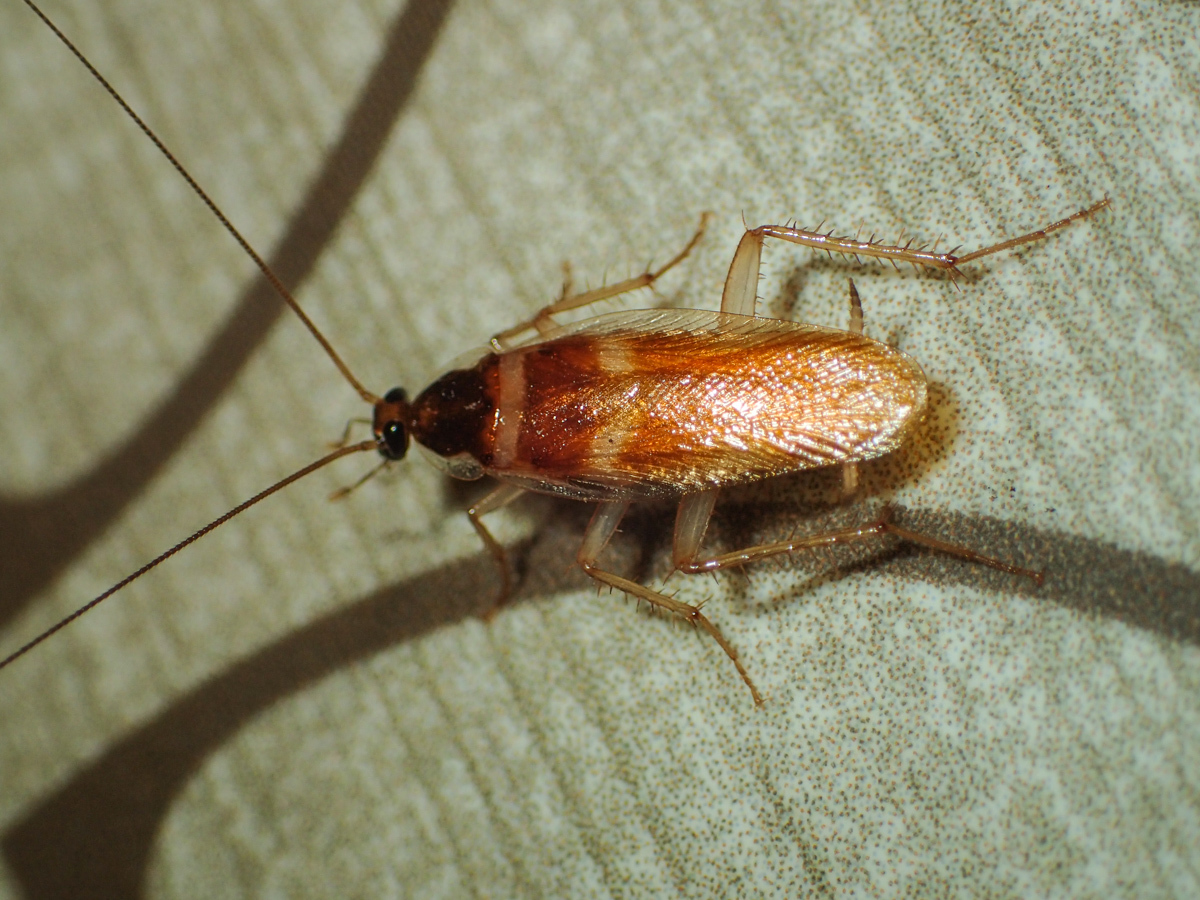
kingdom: Animalia
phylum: Arthropoda
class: Insecta
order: Blattodea
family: Ectobiidae
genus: Supella
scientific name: Supella longipalpa
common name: Brown-banded cockroach
